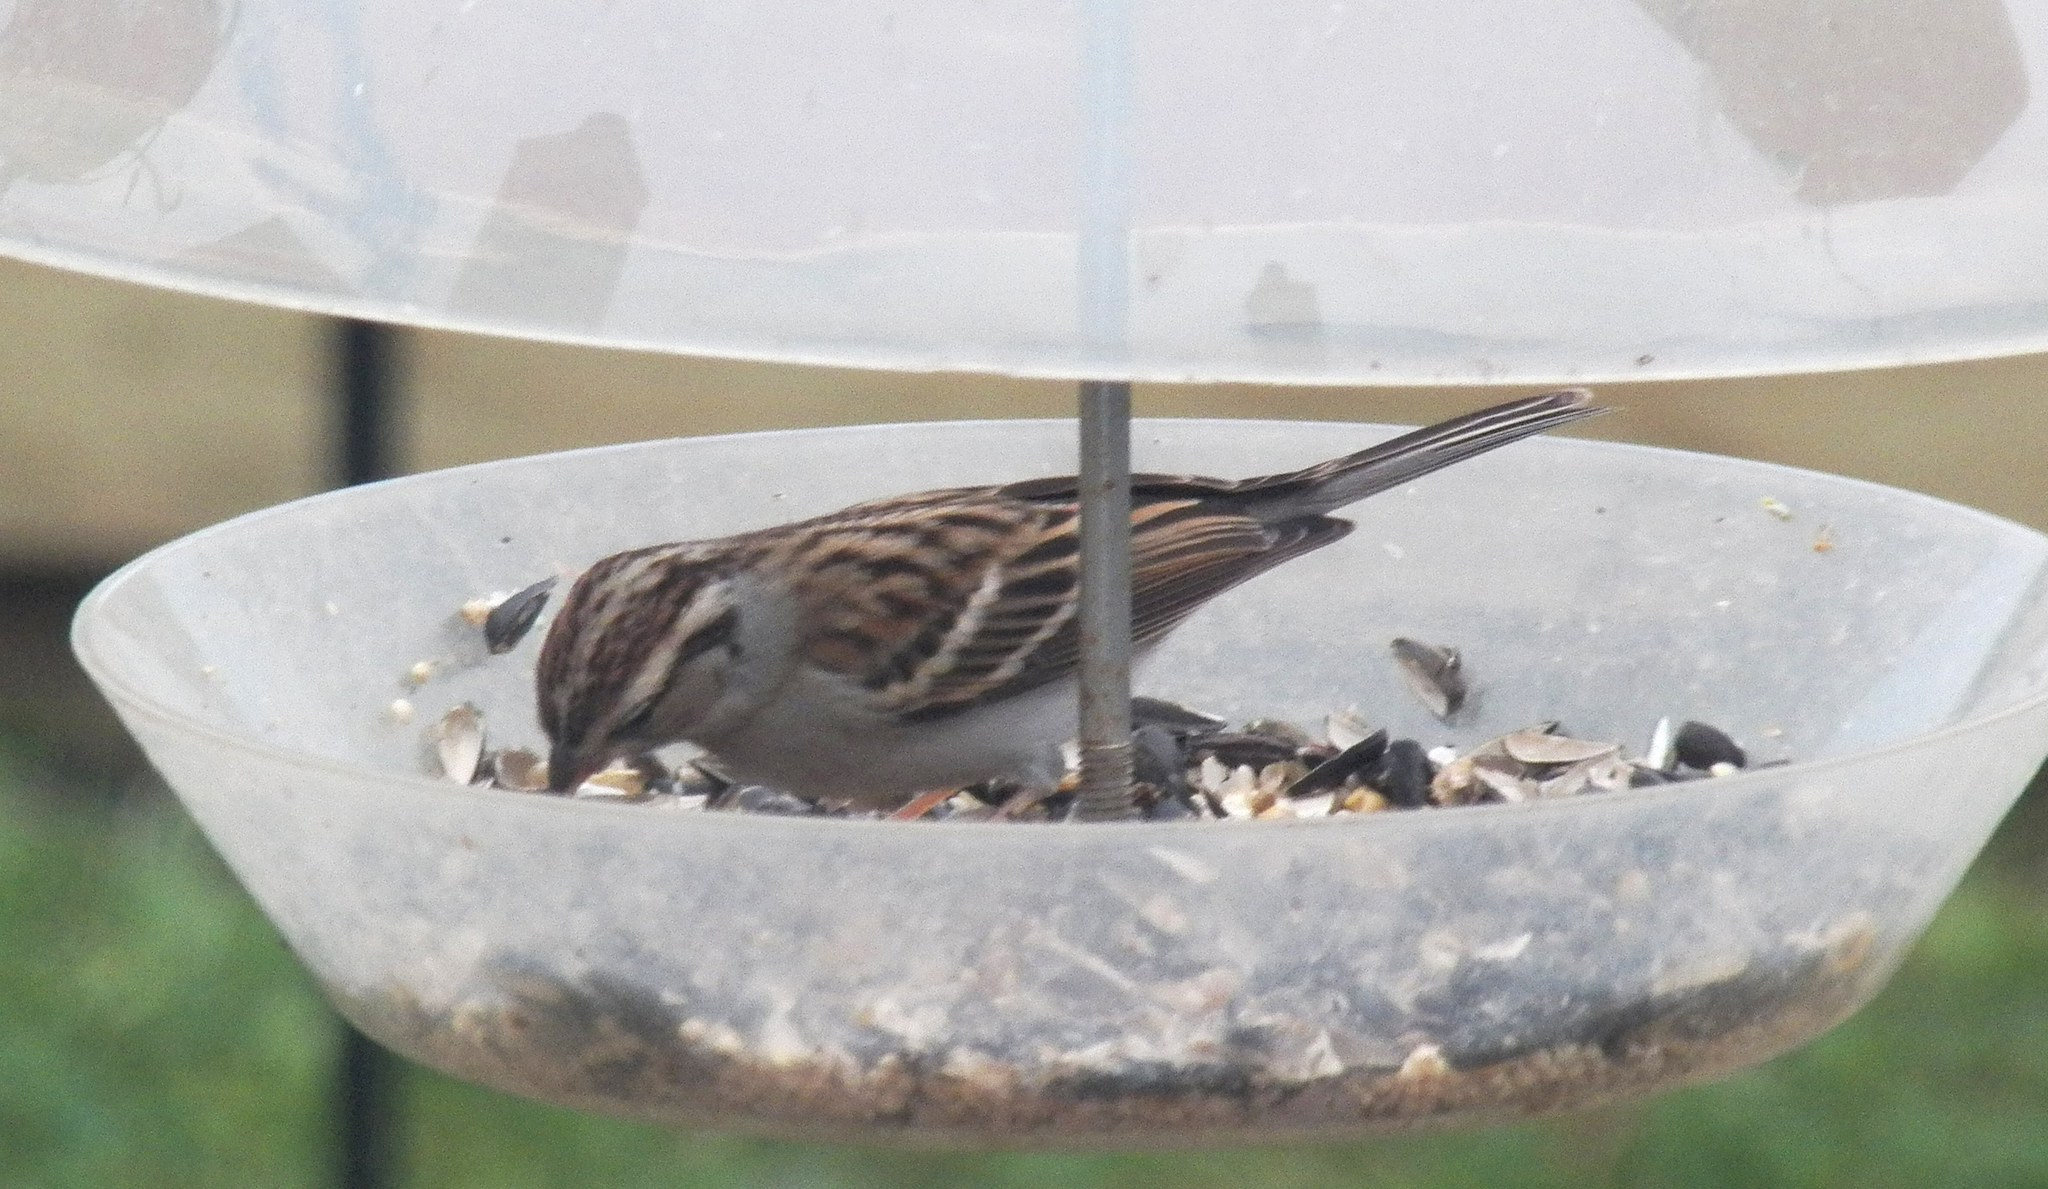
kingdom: Animalia
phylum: Chordata
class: Aves
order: Passeriformes
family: Passerellidae
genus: Spizella
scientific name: Spizella passerina
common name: Chipping sparrow
